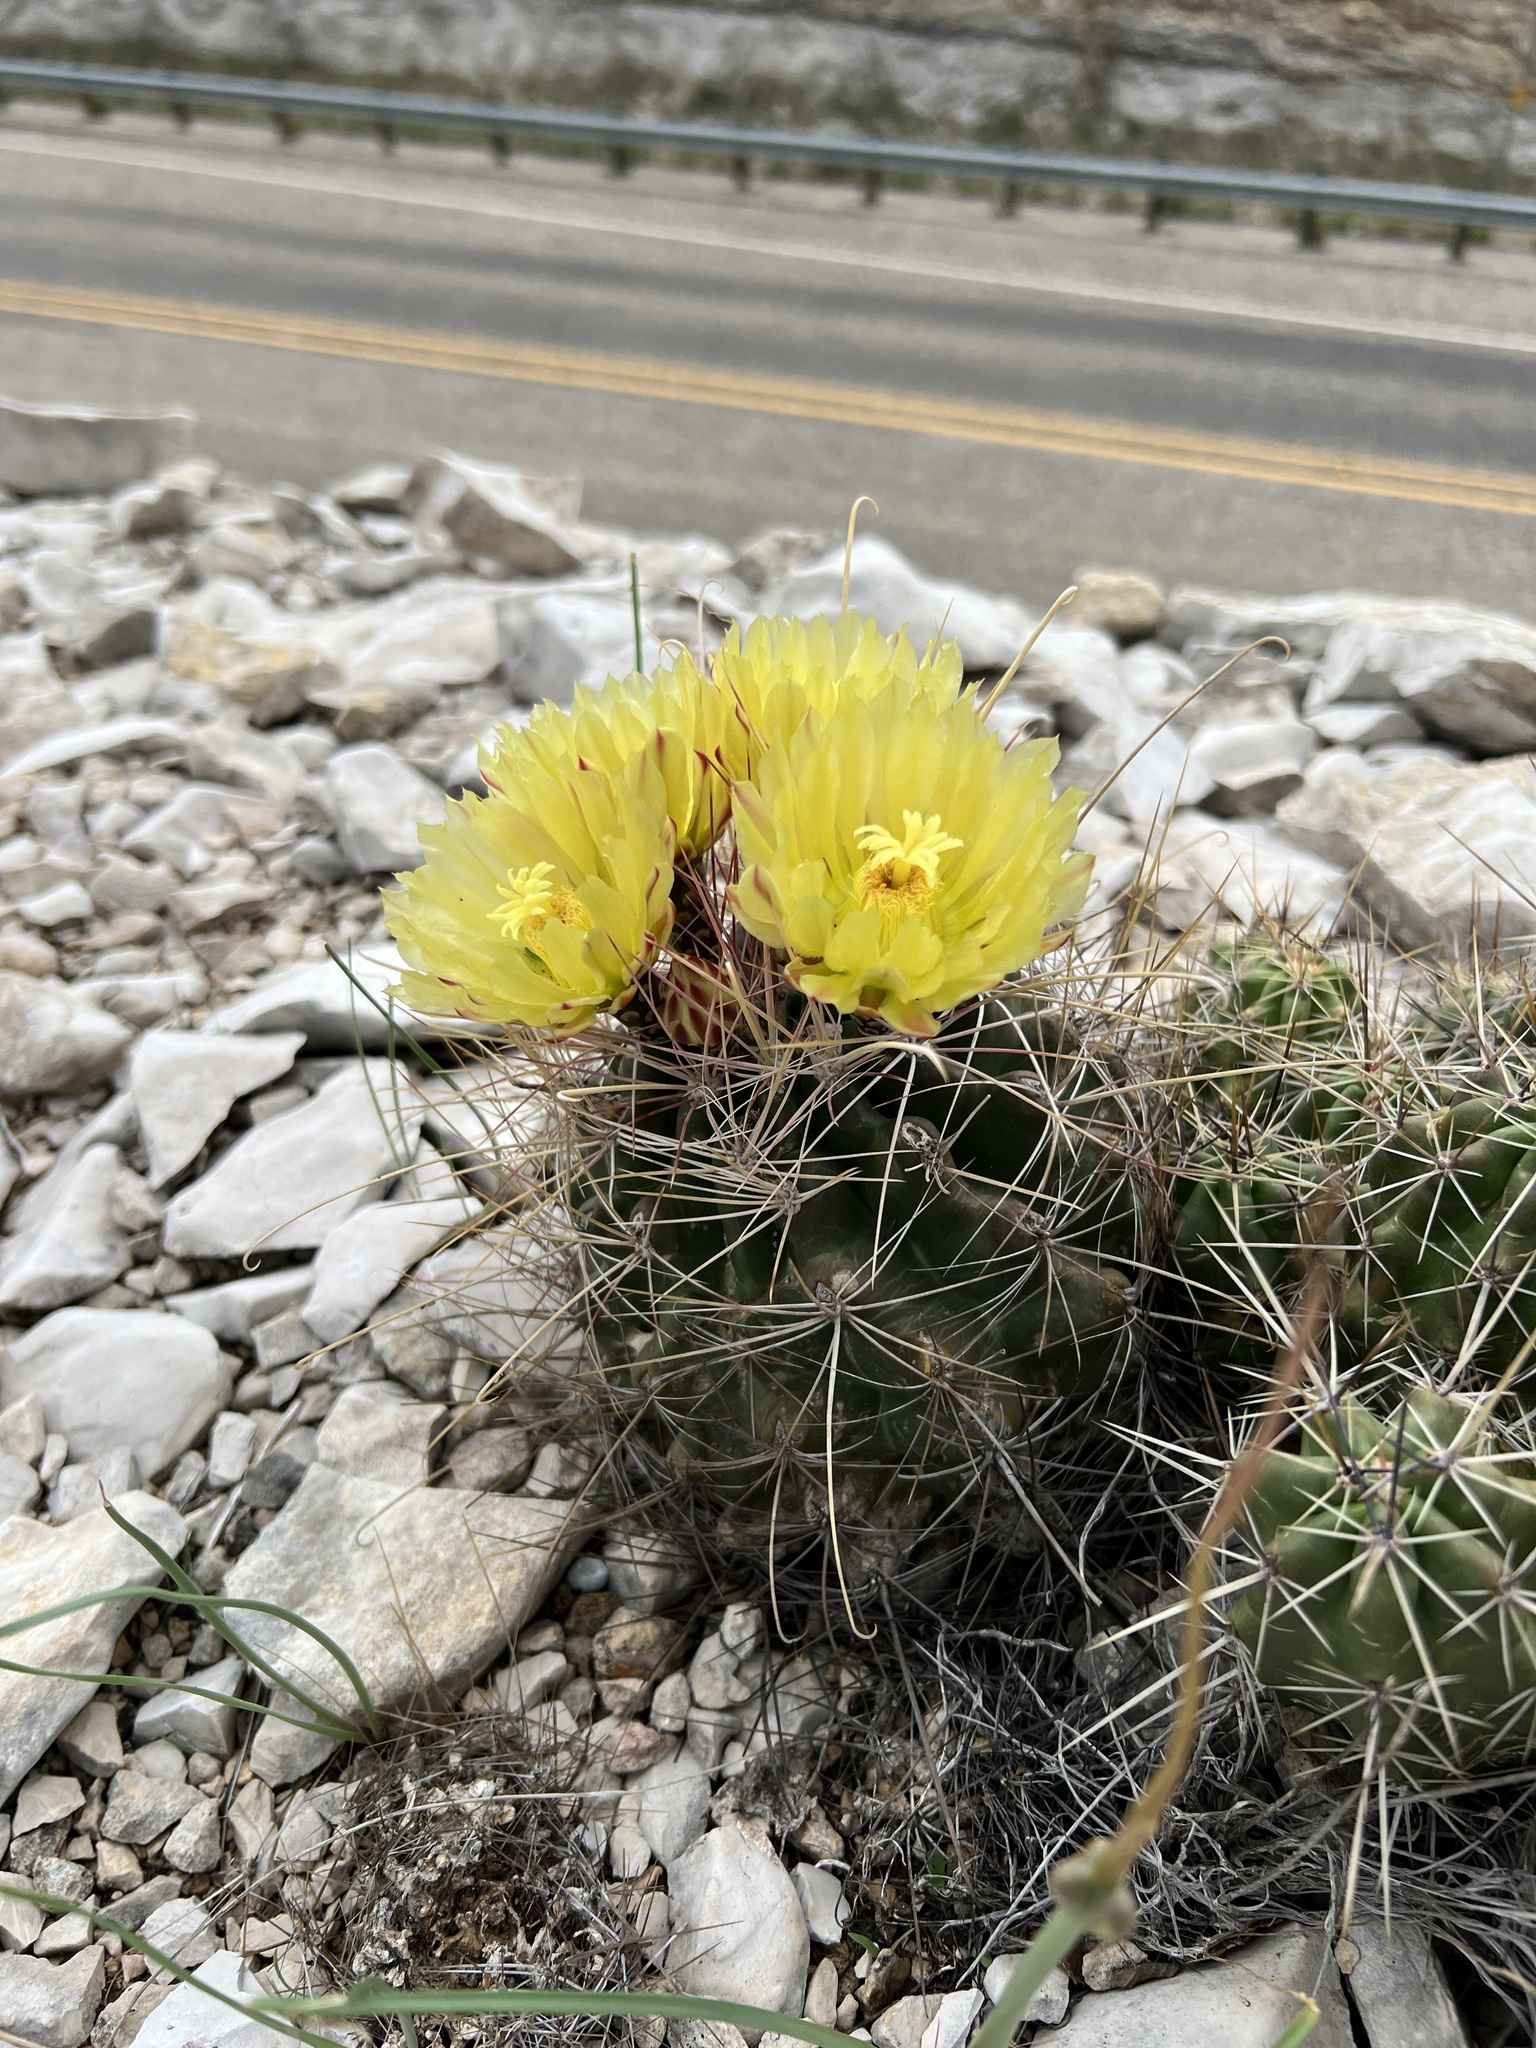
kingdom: Plantae
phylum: Tracheophyta
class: Magnoliopsida
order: Caryophyllales
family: Cactaceae
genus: Bisnaga
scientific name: Bisnaga hamatacantha
